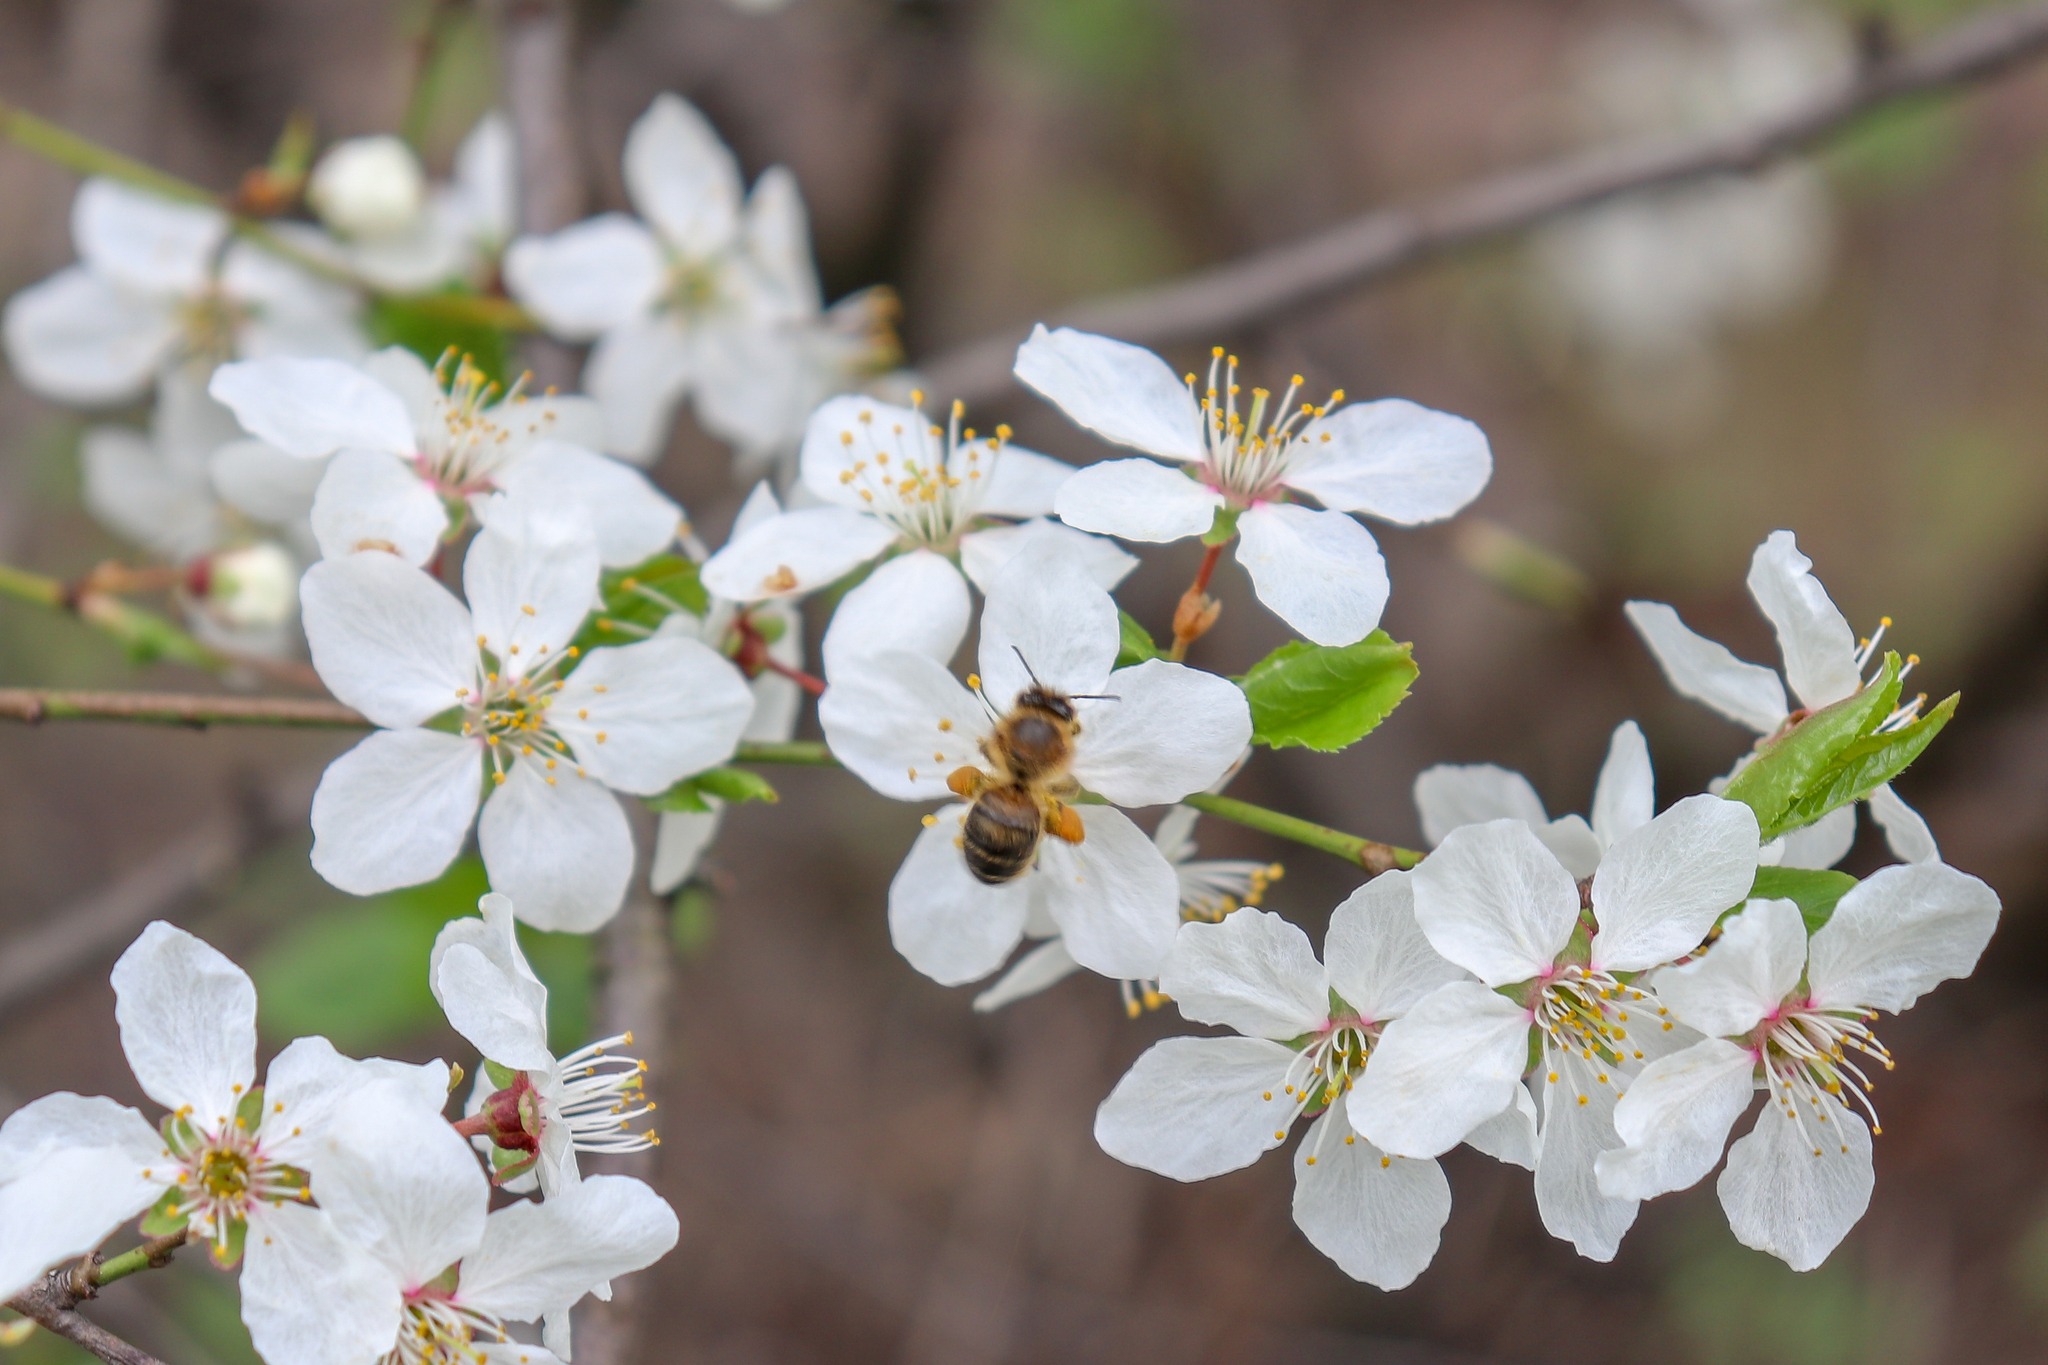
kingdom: Animalia
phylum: Arthropoda
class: Insecta
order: Hymenoptera
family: Apidae
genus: Apis
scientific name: Apis mellifera
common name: Honey bee
